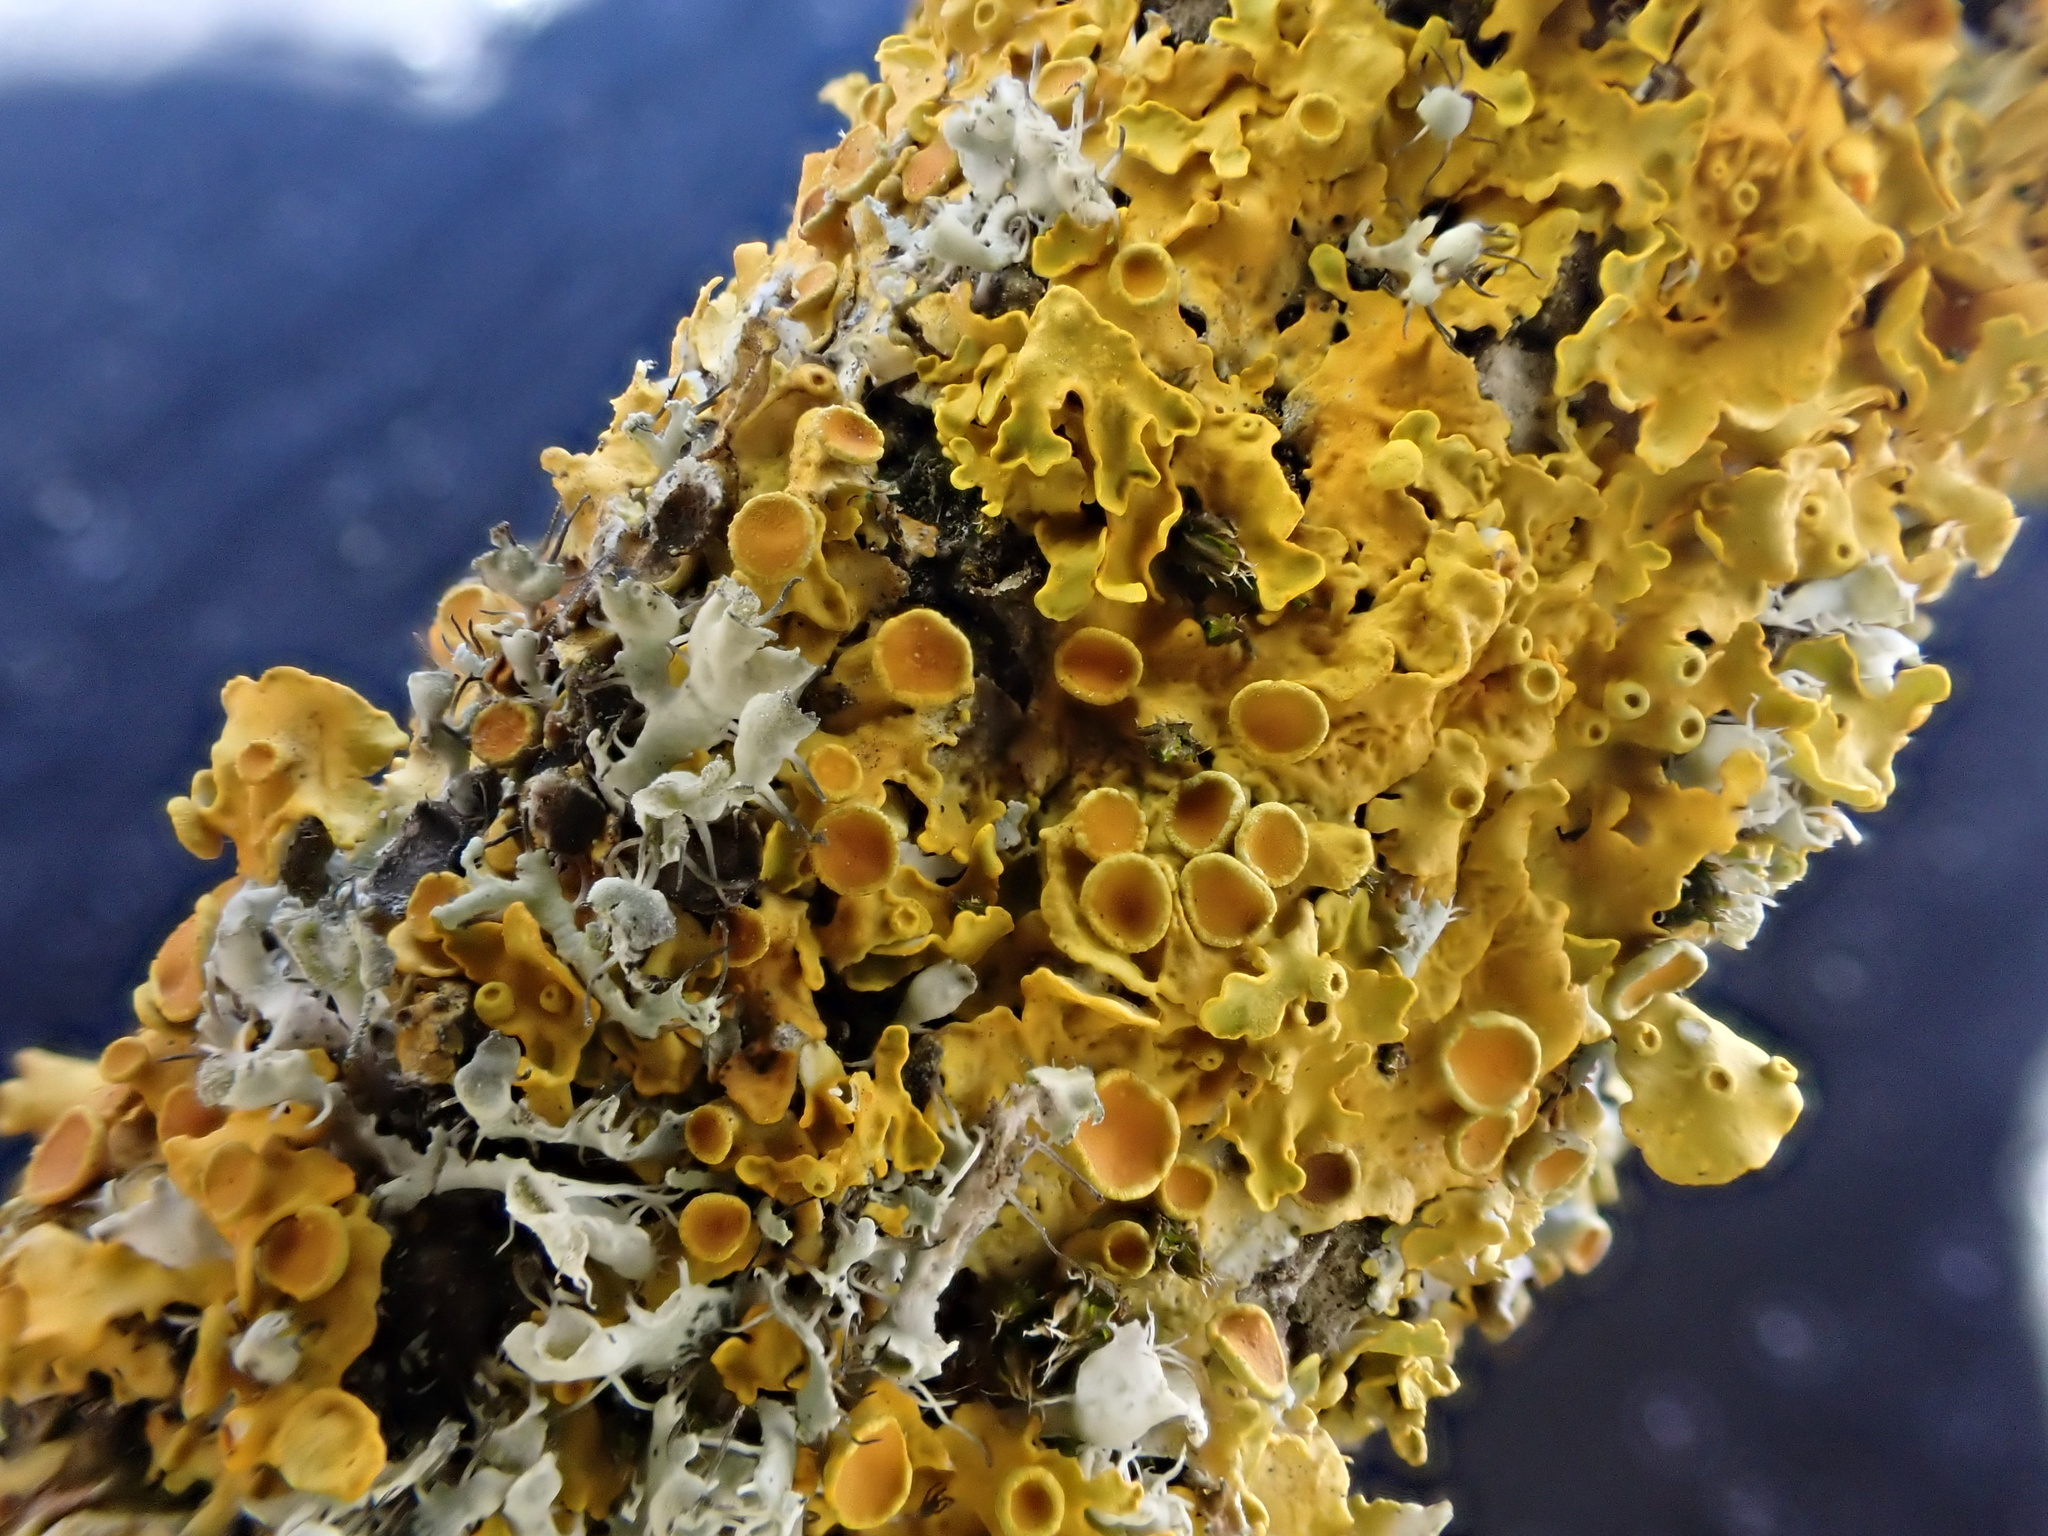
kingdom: Fungi
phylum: Ascomycota
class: Lecanoromycetes
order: Teloschistales
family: Teloschistaceae
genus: Xanthoria
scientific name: Xanthoria parietina
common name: Common orange lichen
